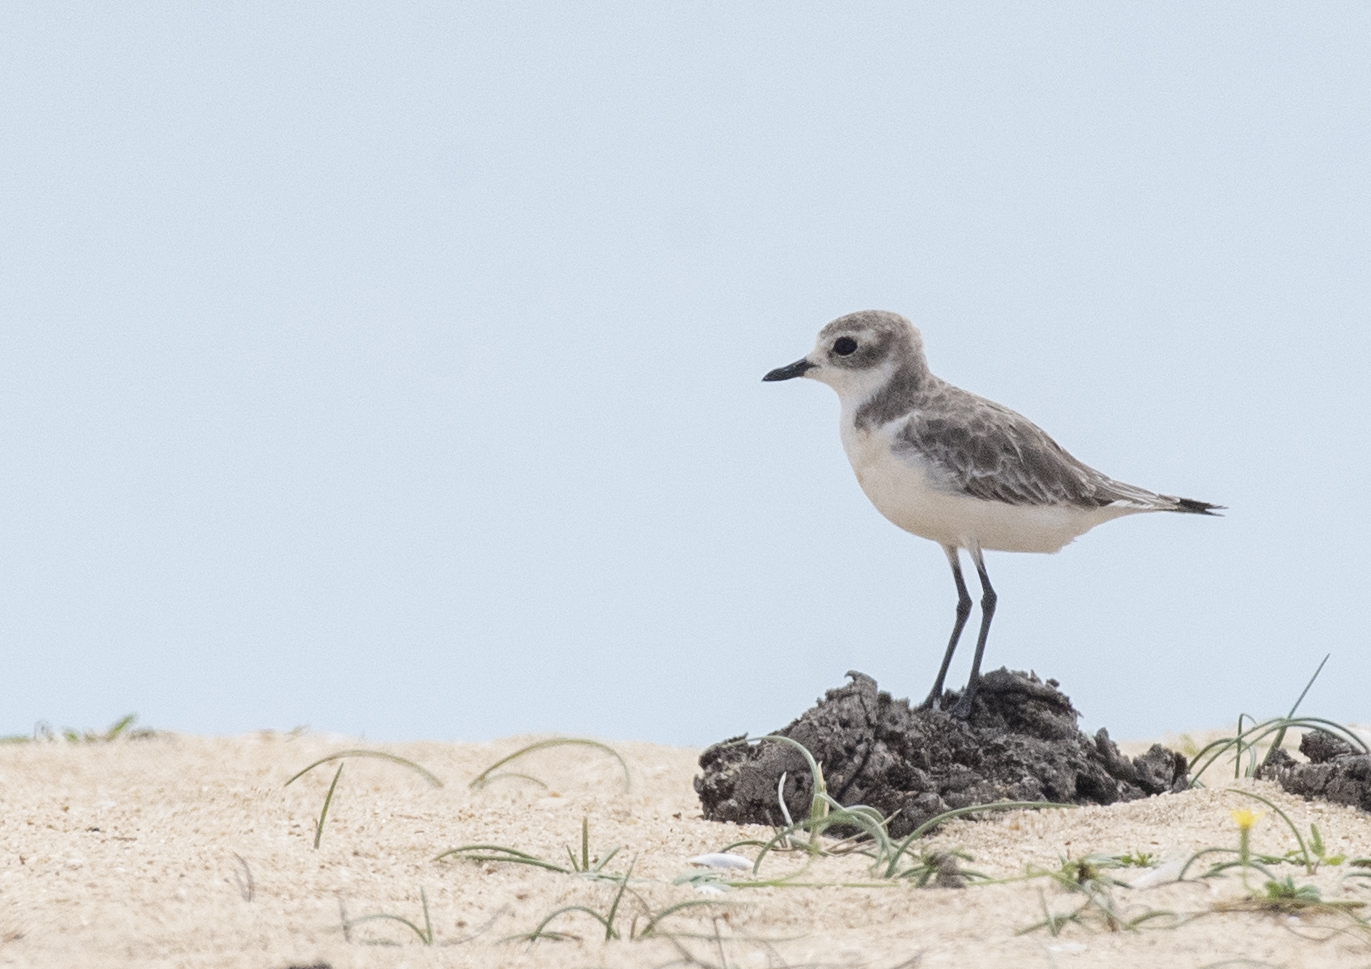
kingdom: Animalia
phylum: Chordata
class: Aves
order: Charadriiformes
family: Charadriidae
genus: Anarhynchus
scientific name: Anarhynchus
